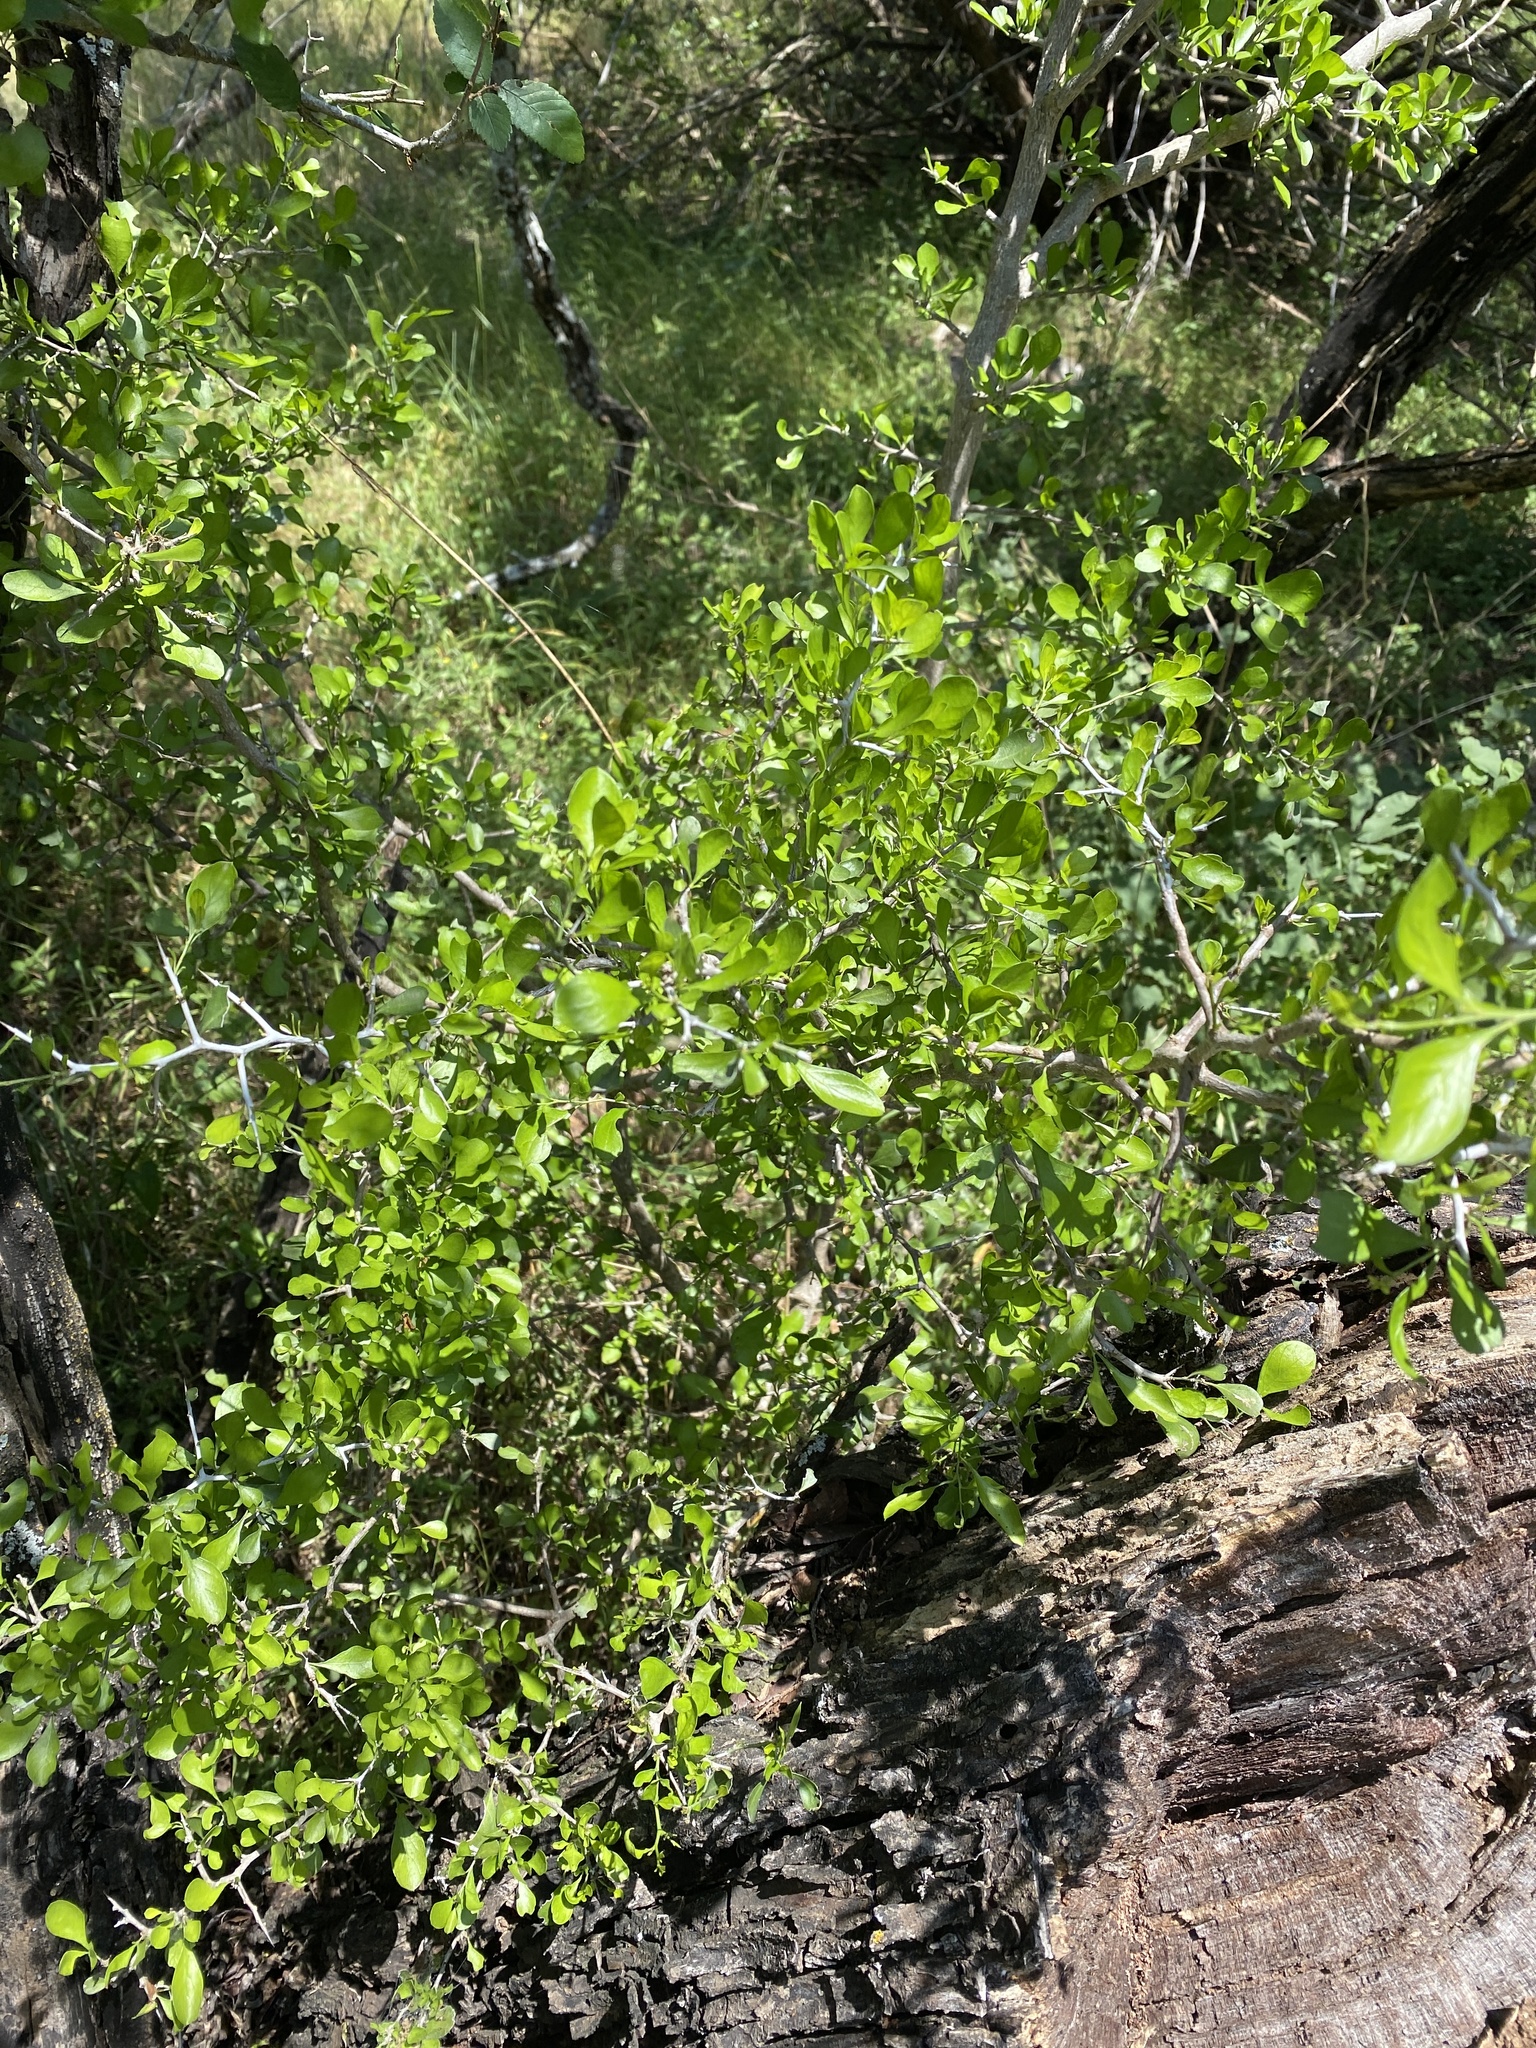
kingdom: Plantae
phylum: Tracheophyta
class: Magnoliopsida
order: Rosales
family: Rhamnaceae
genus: Condalia
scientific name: Condalia hookeri
